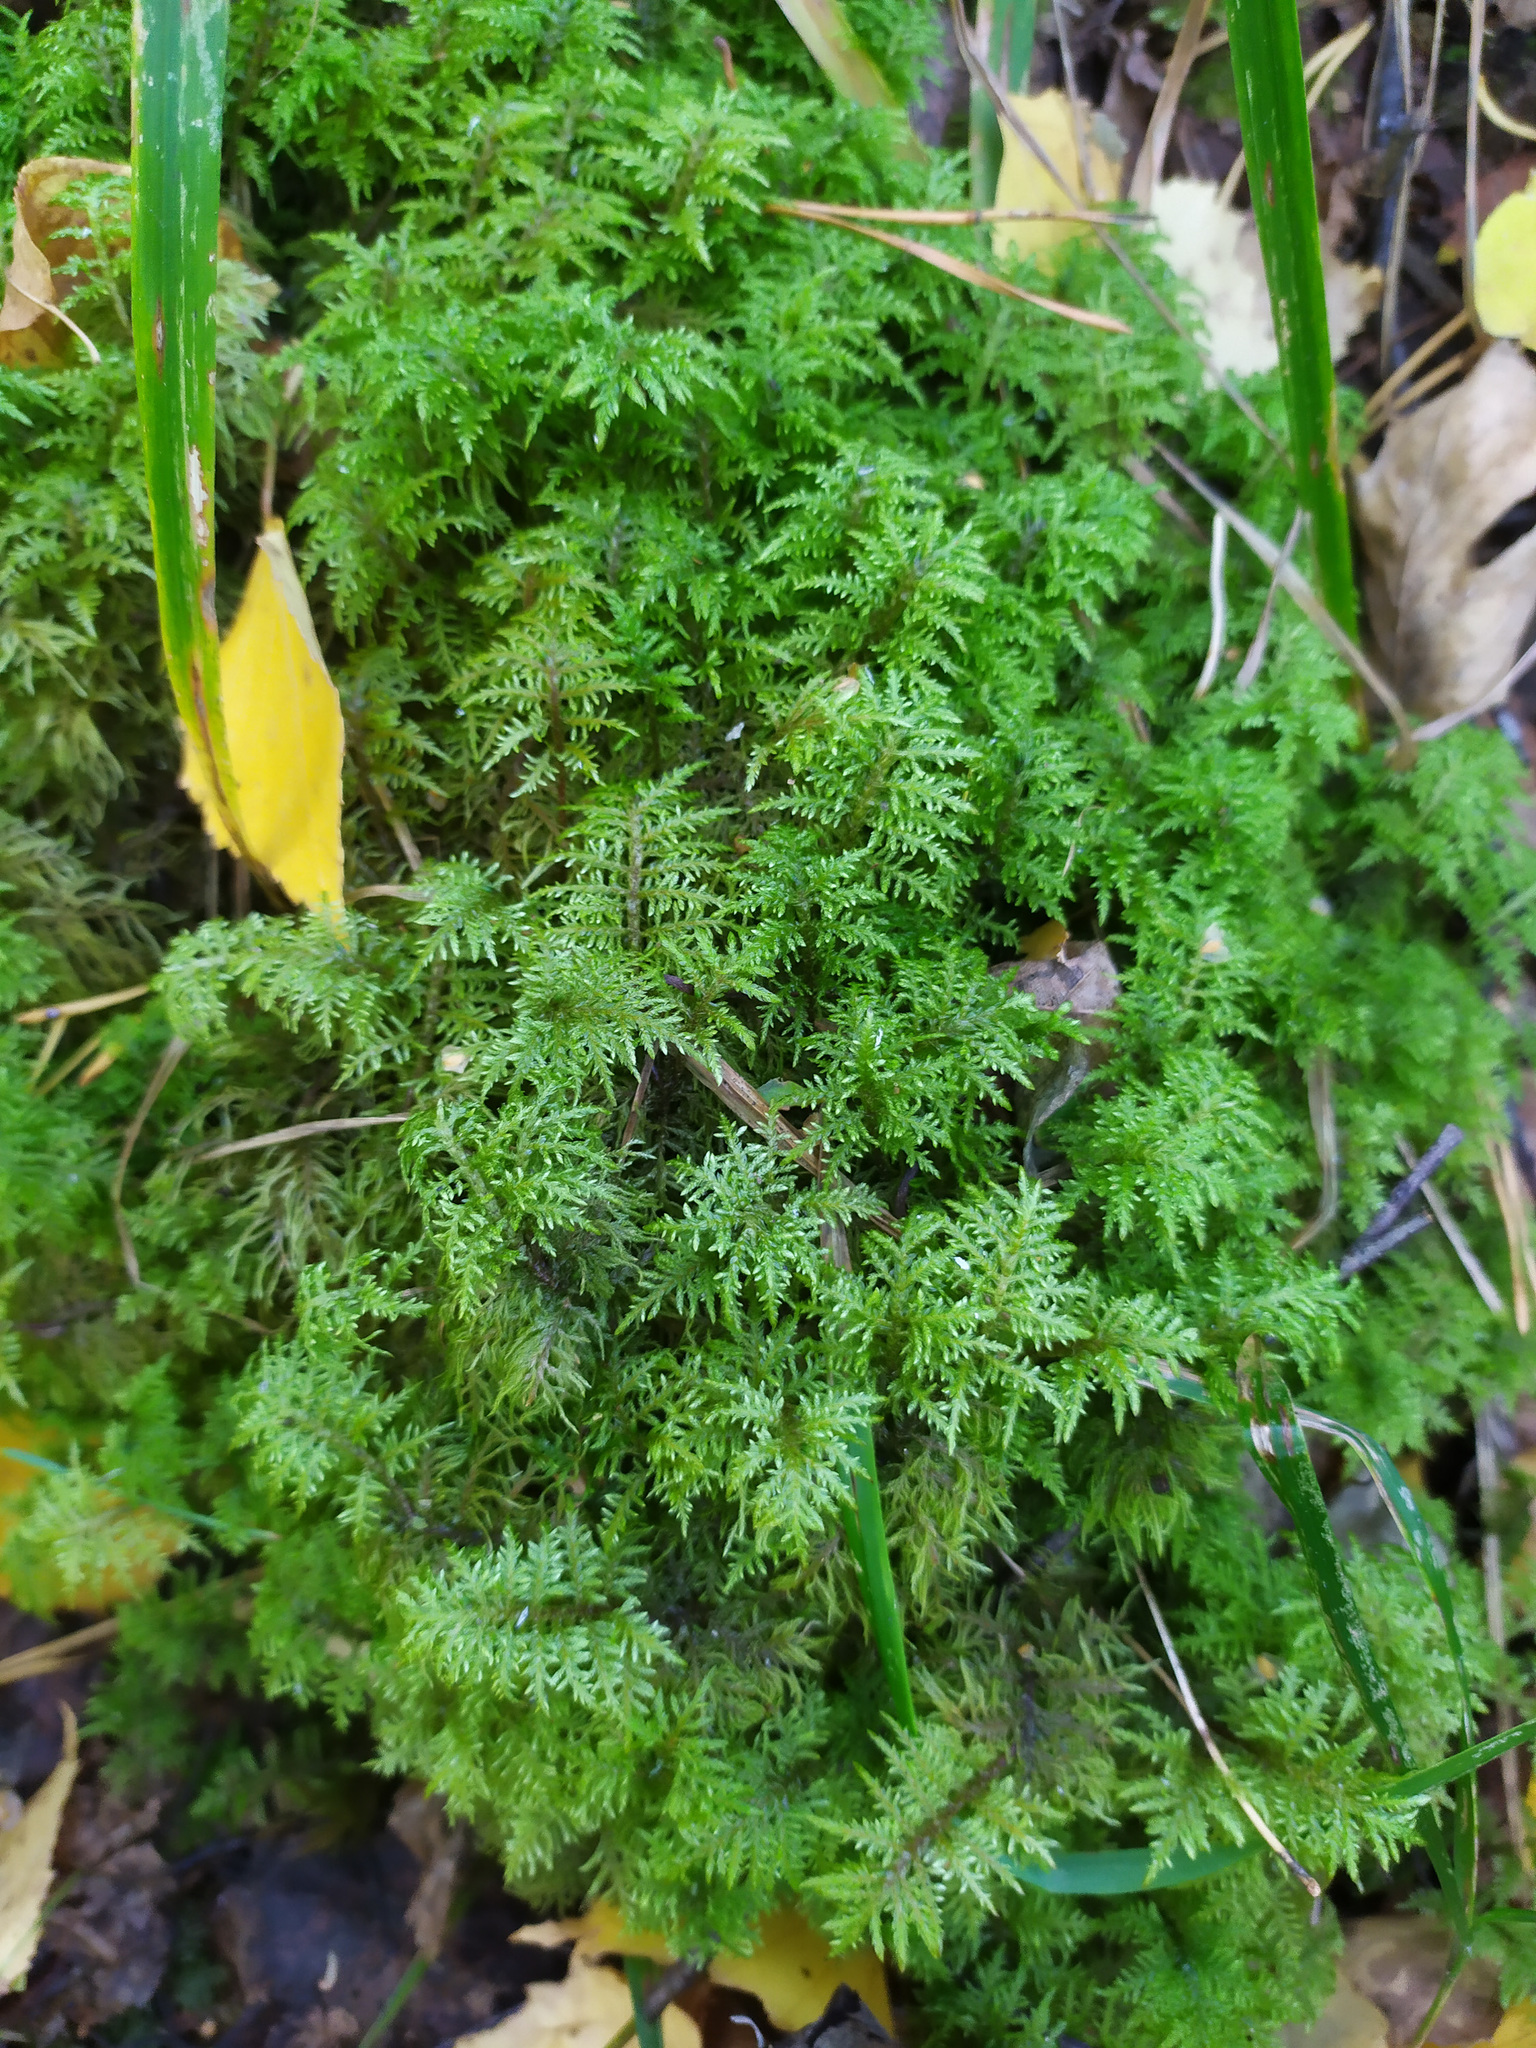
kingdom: Plantae
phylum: Bryophyta
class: Bryopsida
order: Hypnales
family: Hylocomiaceae
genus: Hylocomium
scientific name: Hylocomium splendens
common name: Stairstep moss
